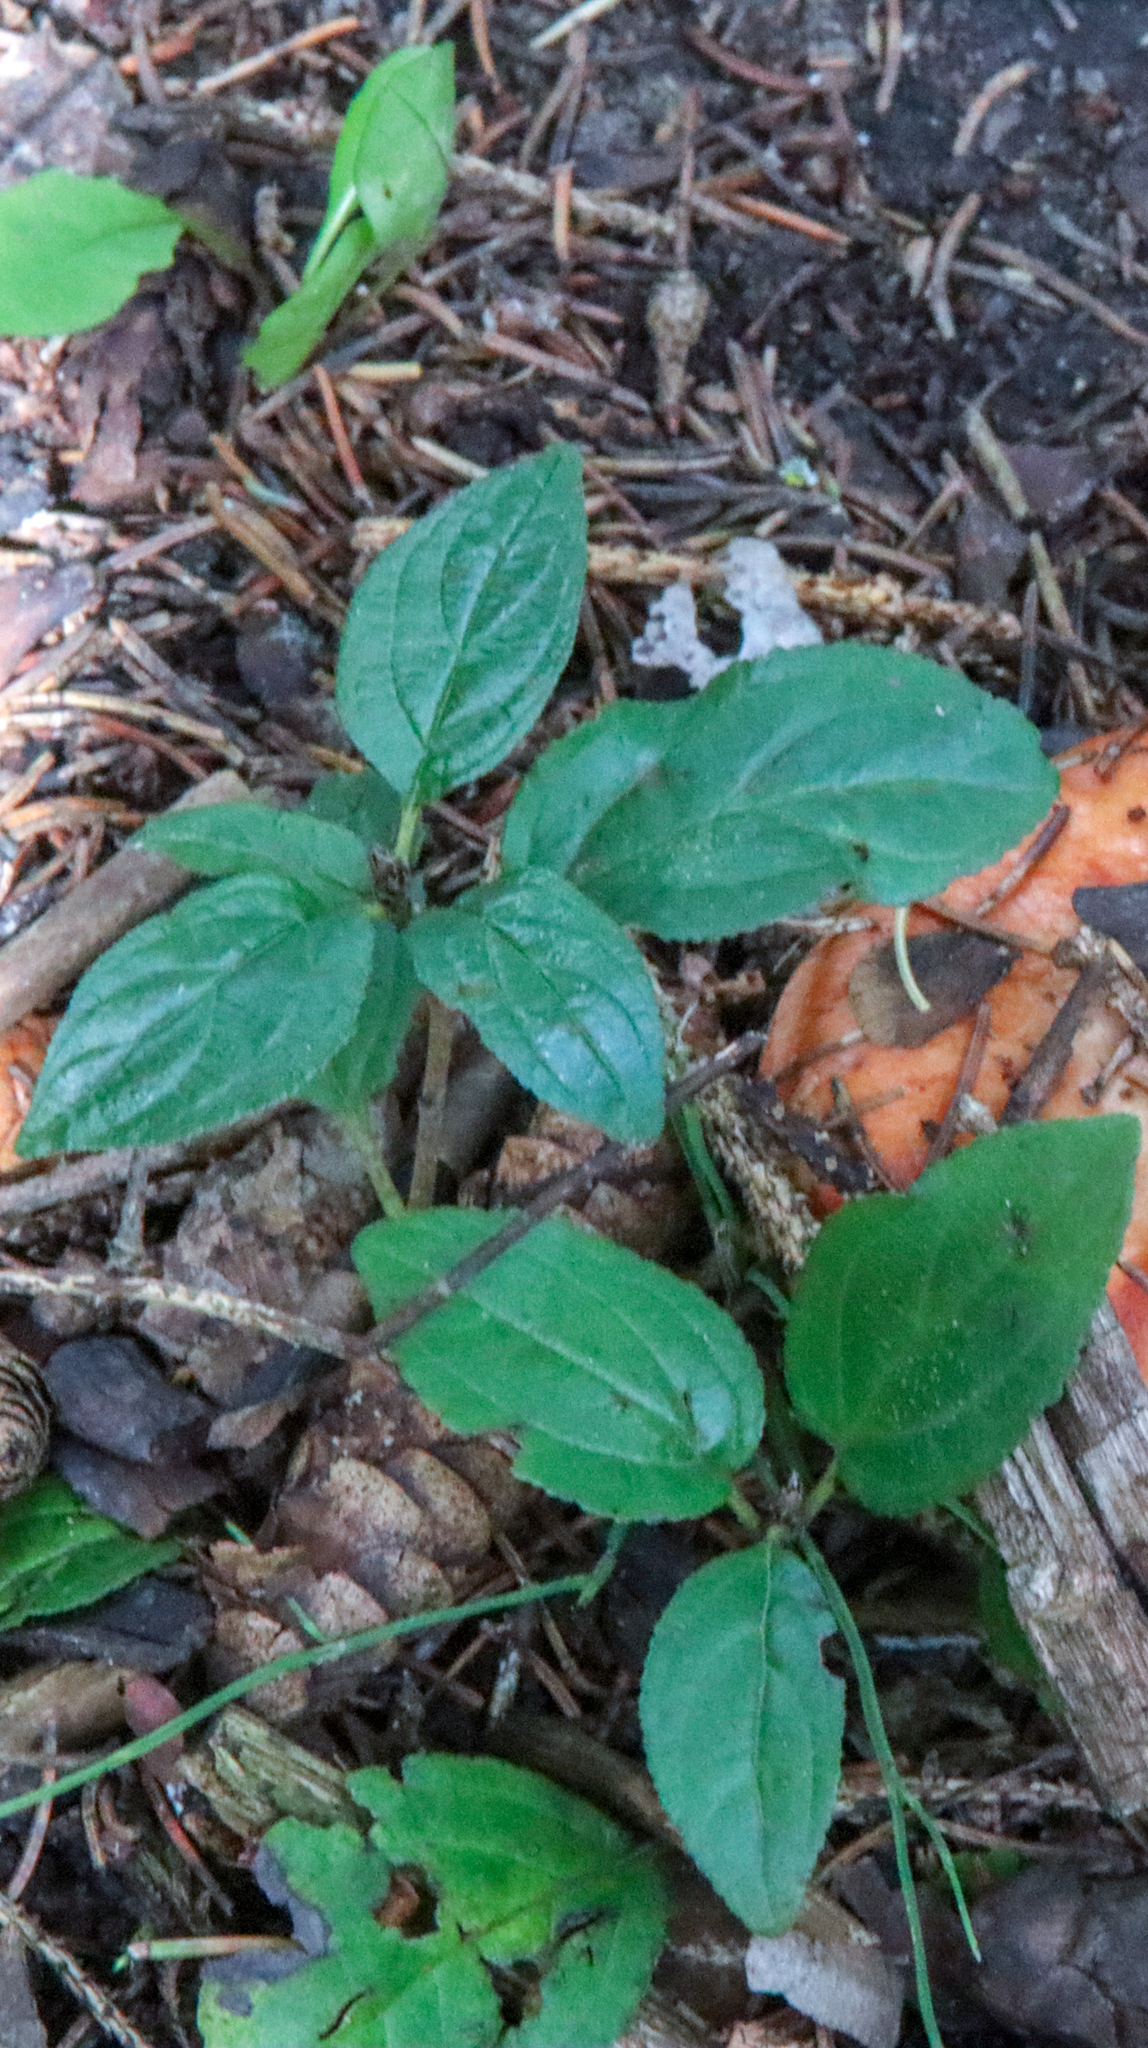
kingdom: Plantae
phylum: Tracheophyta
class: Magnoliopsida
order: Rosales
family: Rhamnaceae
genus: Rhamnus
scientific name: Rhamnus cathartica
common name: Common buckthorn
